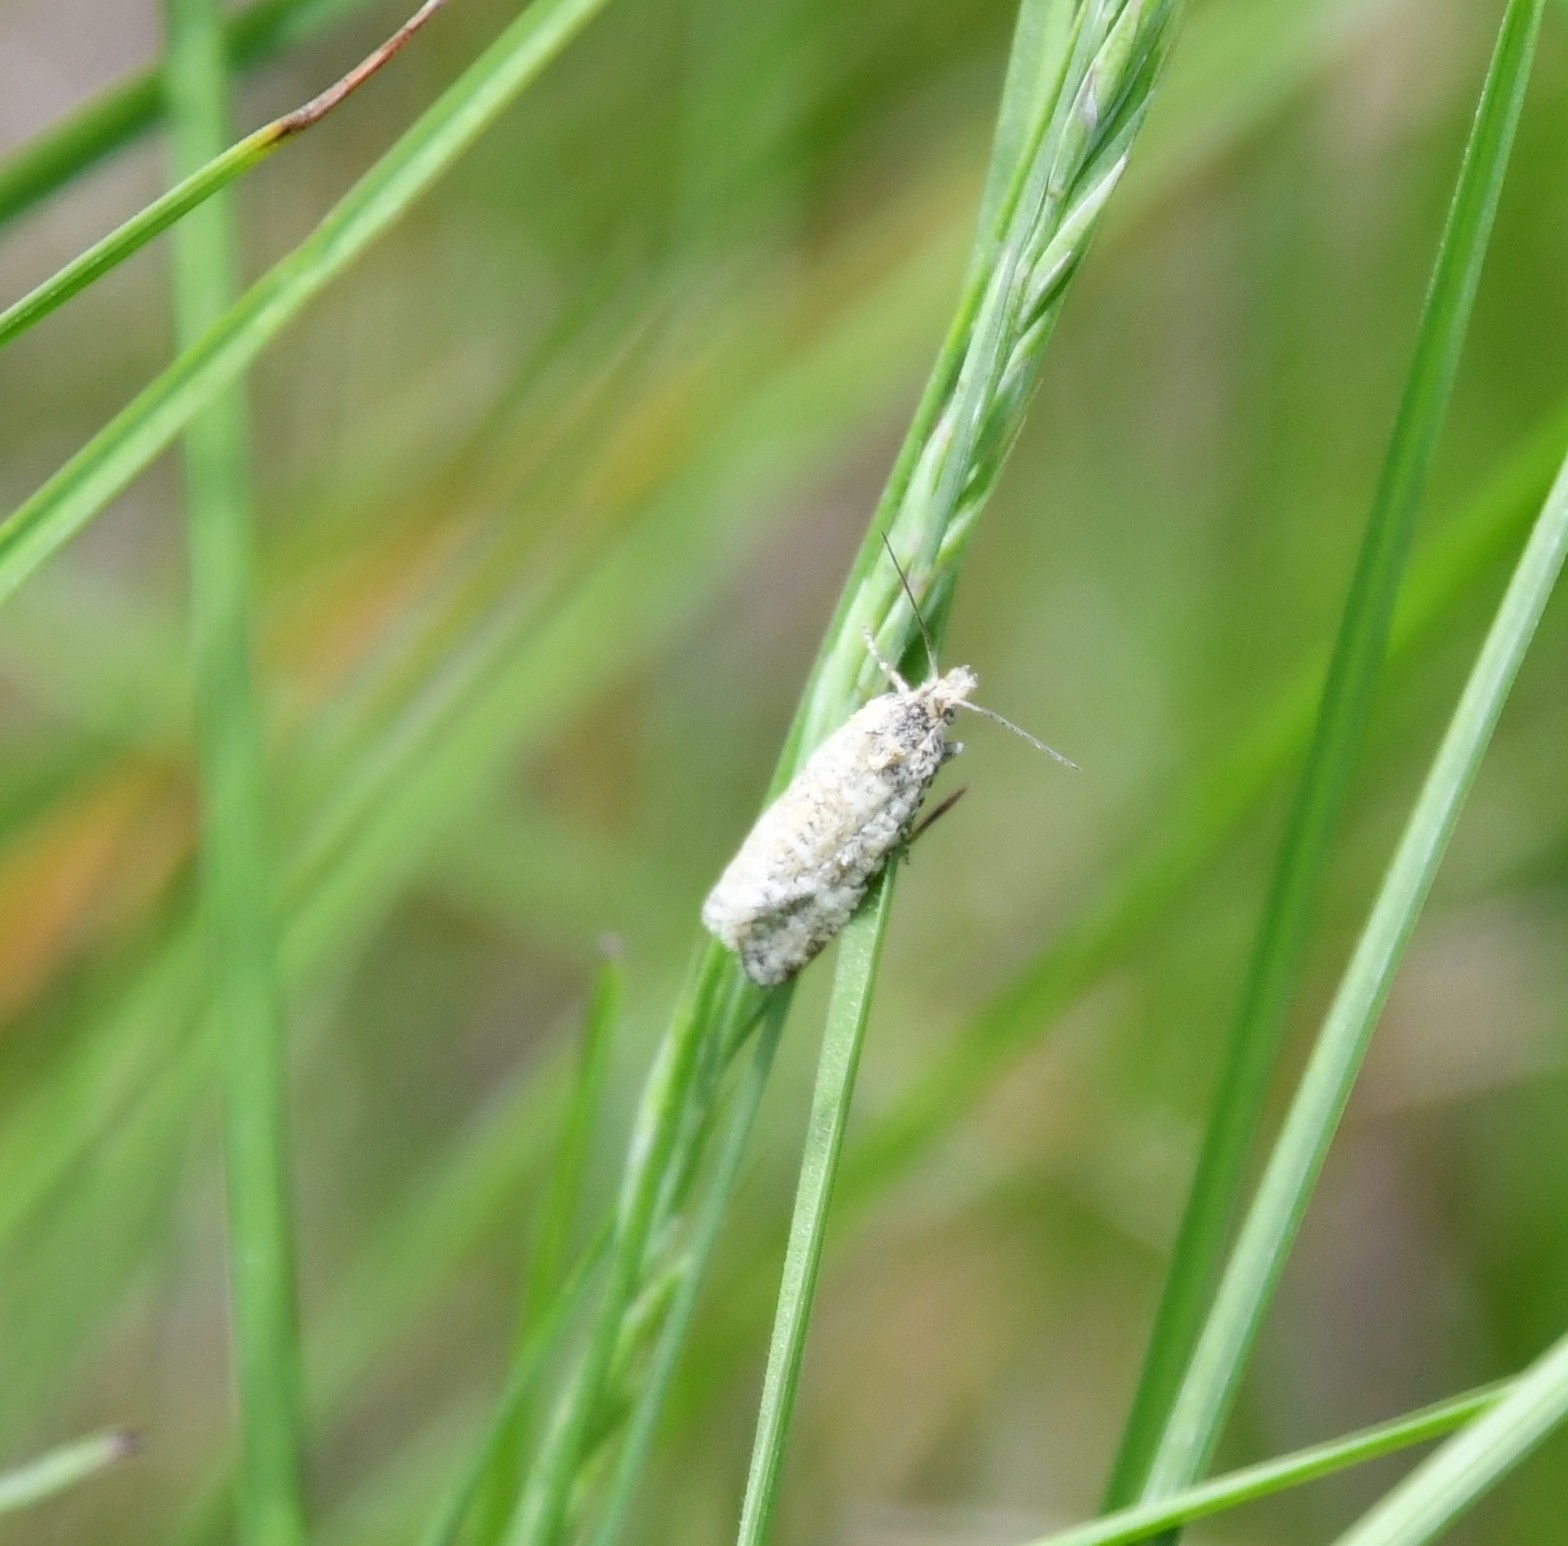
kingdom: Animalia
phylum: Arthropoda
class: Insecta
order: Lepidoptera
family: Tortricidae
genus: Aethes
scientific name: Aethes moribundana
